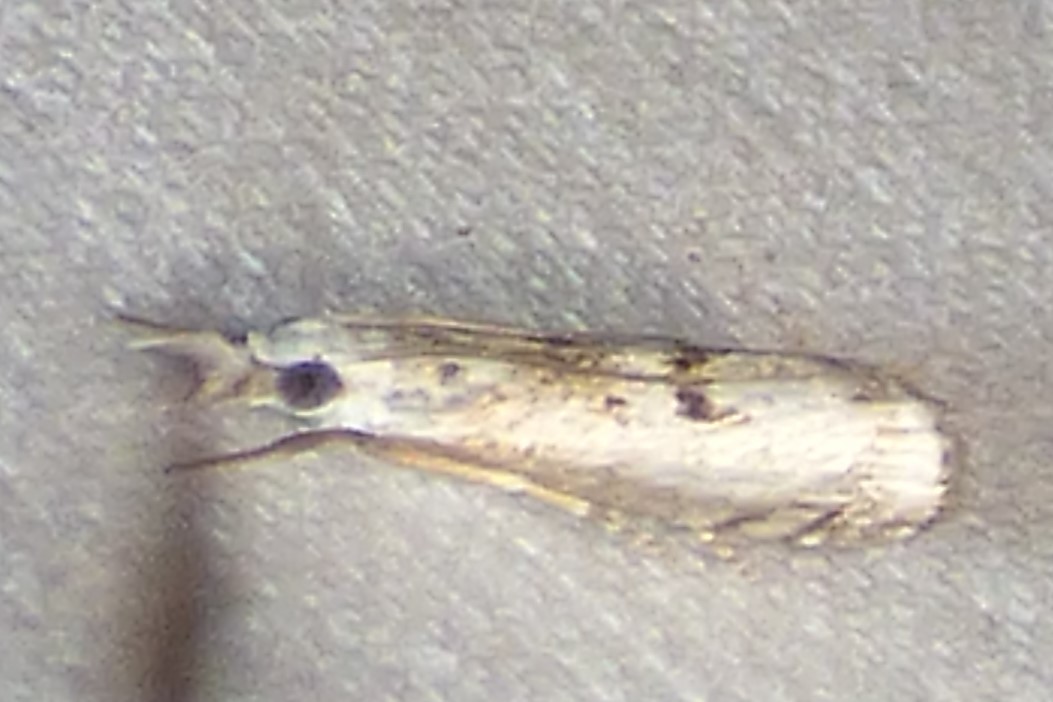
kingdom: Animalia
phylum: Arthropoda
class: Insecta
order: Lepidoptera
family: Crambidae
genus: Microcrambus
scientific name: Microcrambus immunellus
